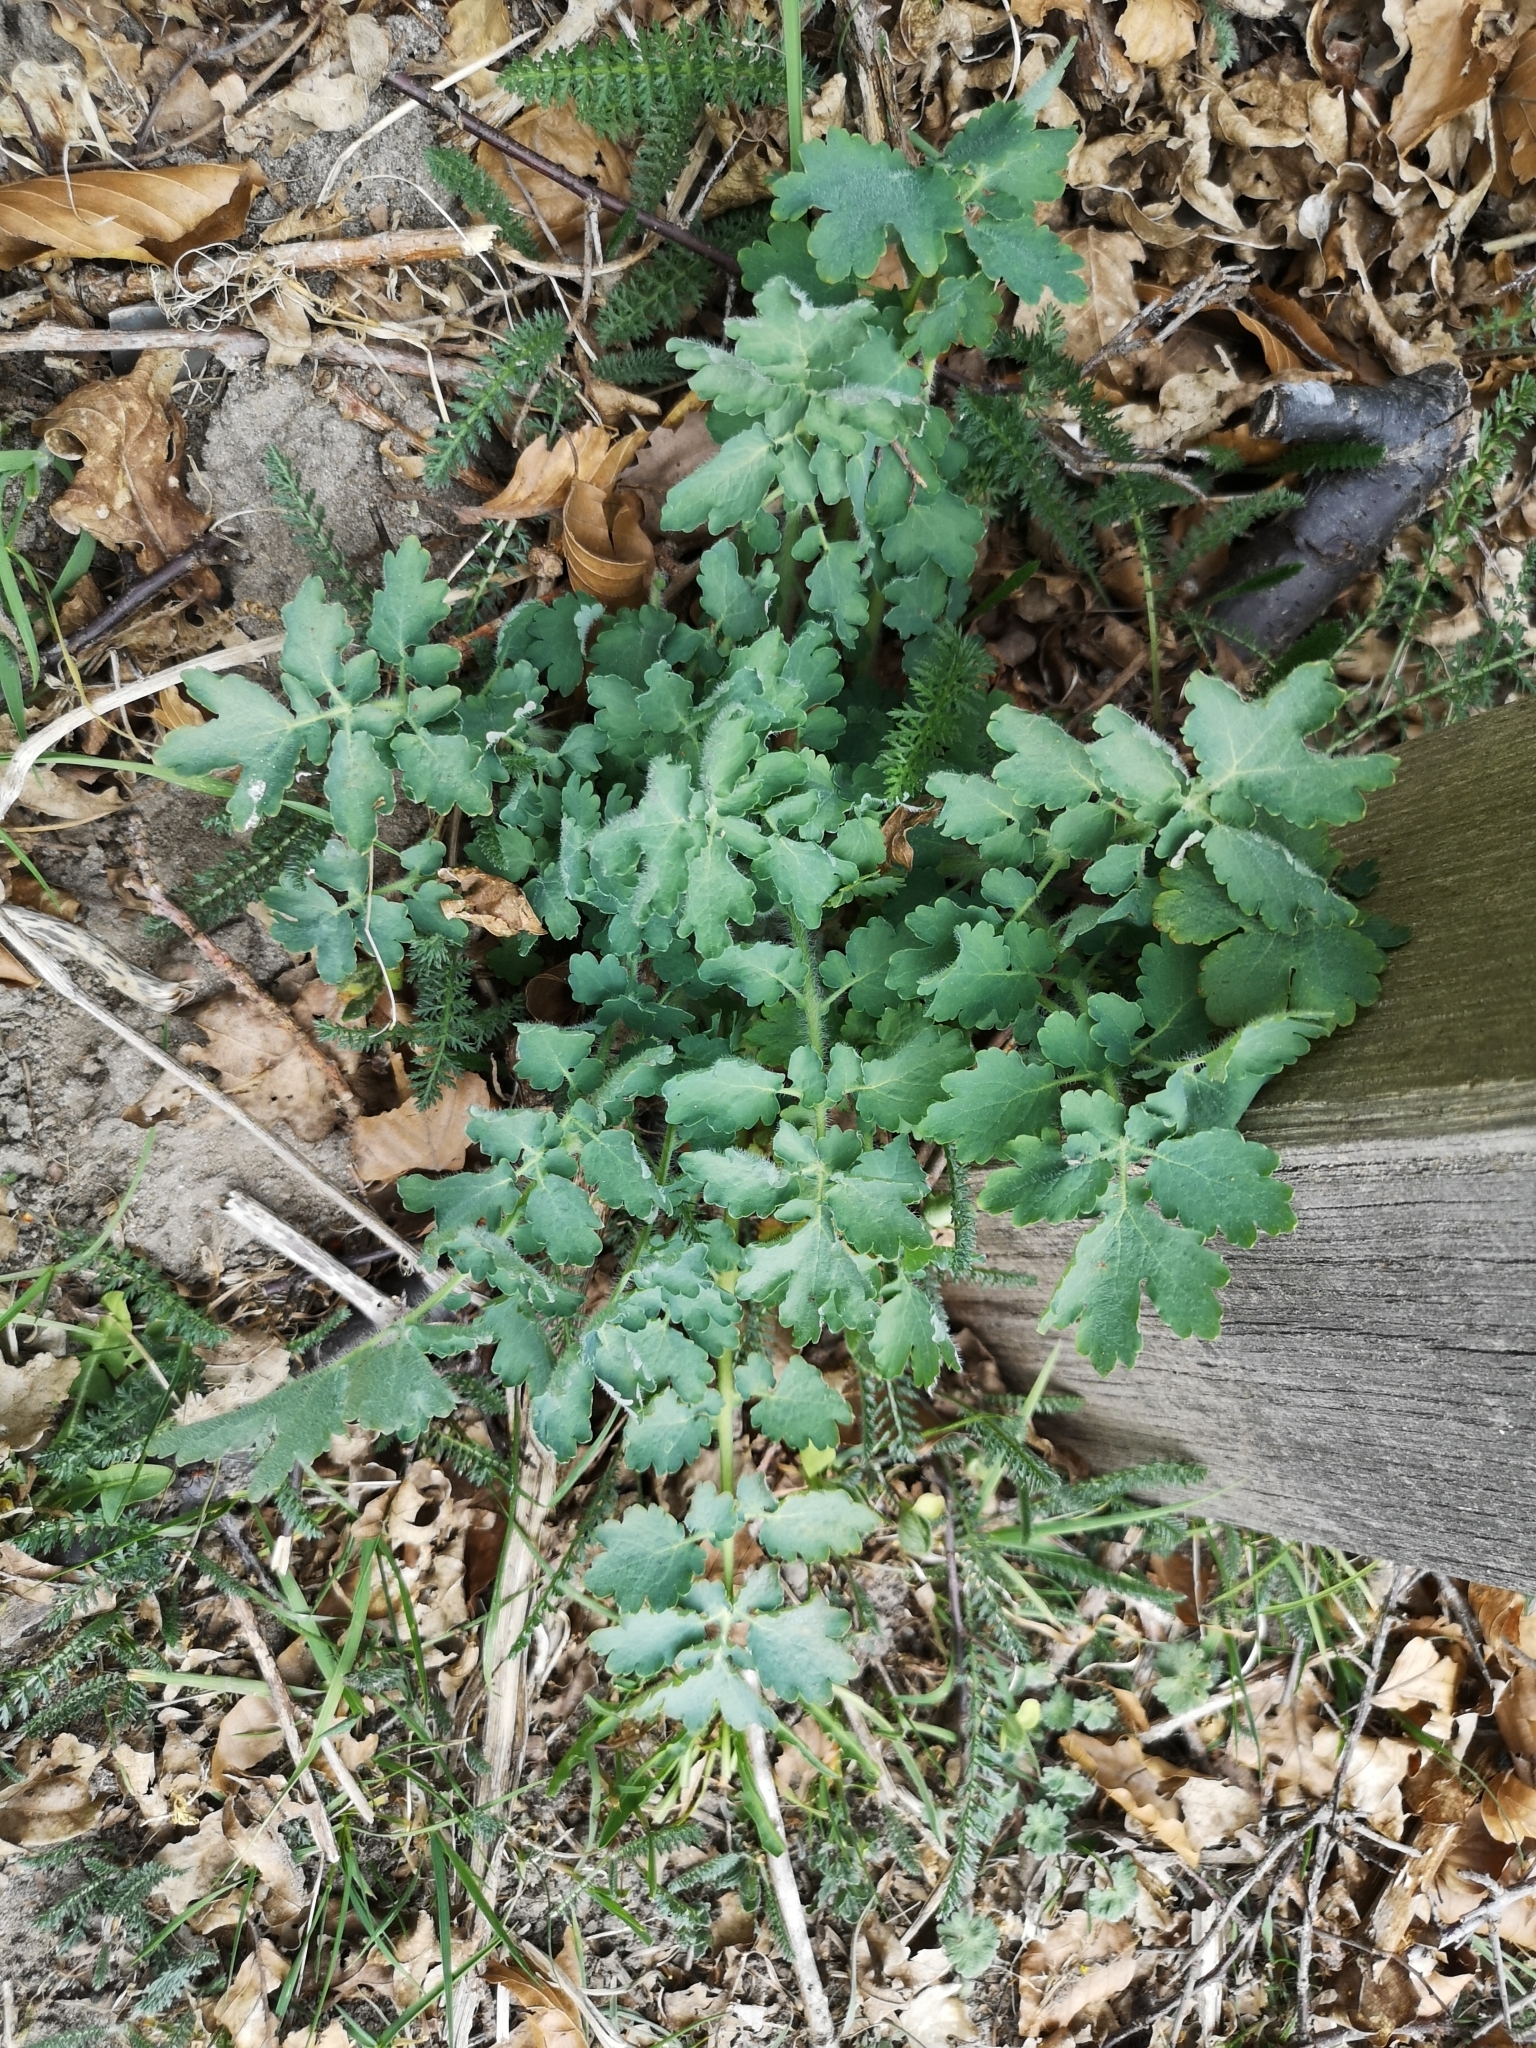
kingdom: Plantae
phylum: Tracheophyta
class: Magnoliopsida
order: Ranunculales
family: Papaveraceae
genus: Chelidonium
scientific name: Chelidonium majus
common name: Greater celandine
